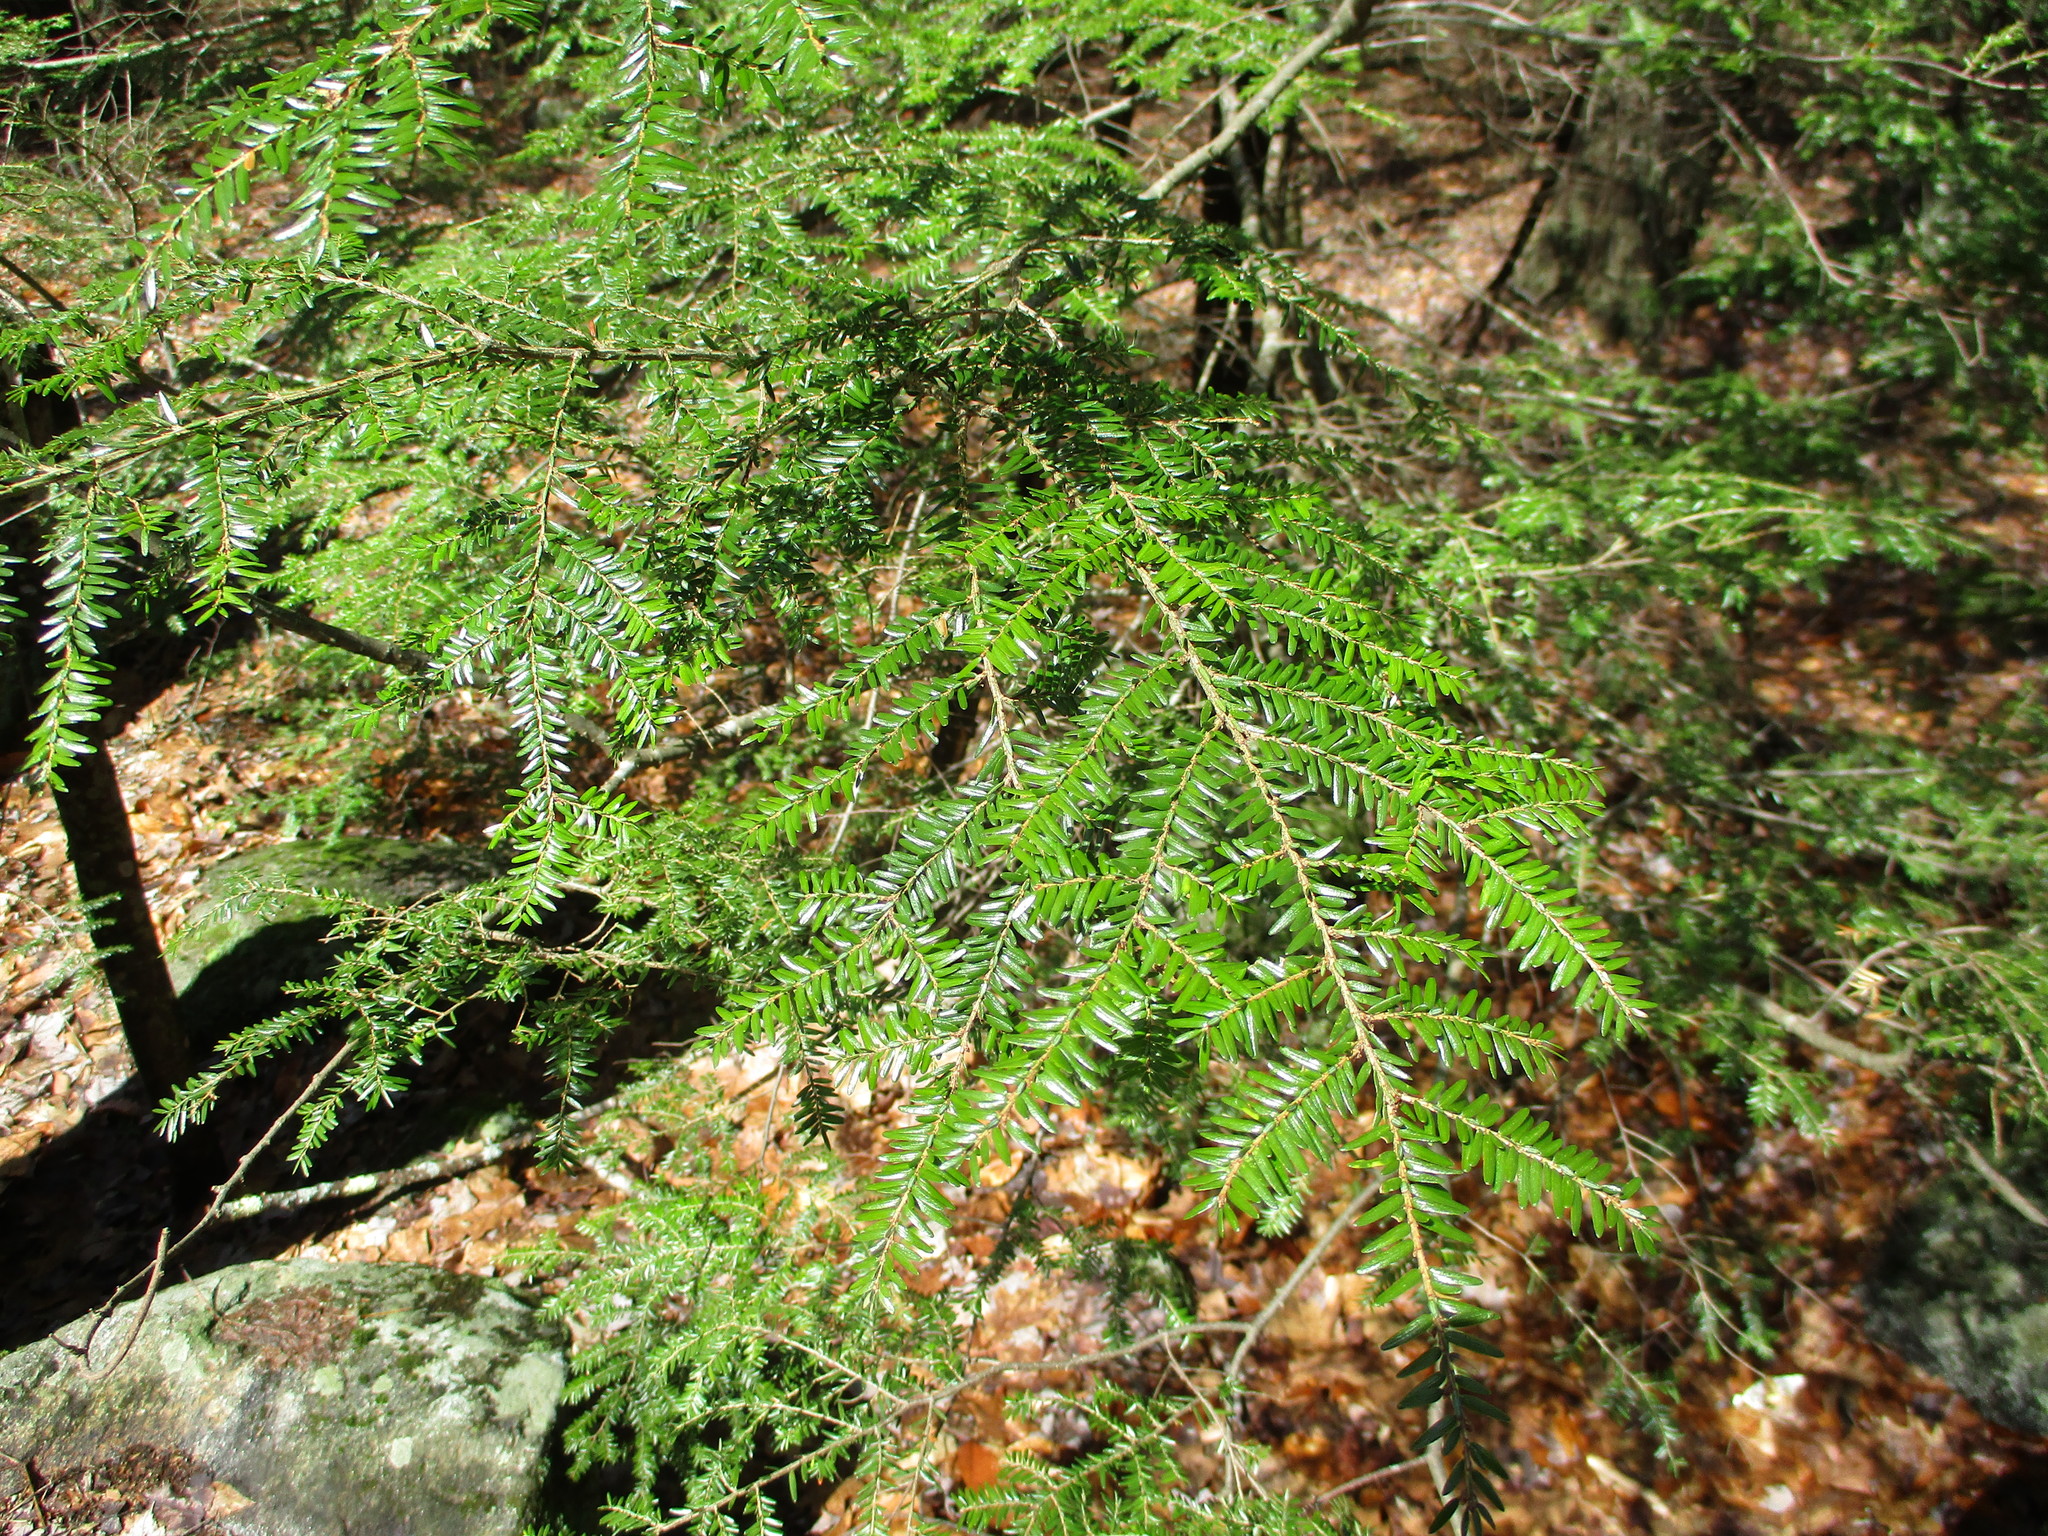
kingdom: Plantae
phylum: Tracheophyta
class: Pinopsida
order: Pinales
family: Pinaceae
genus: Tsuga
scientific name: Tsuga canadensis
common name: Eastern hemlock
